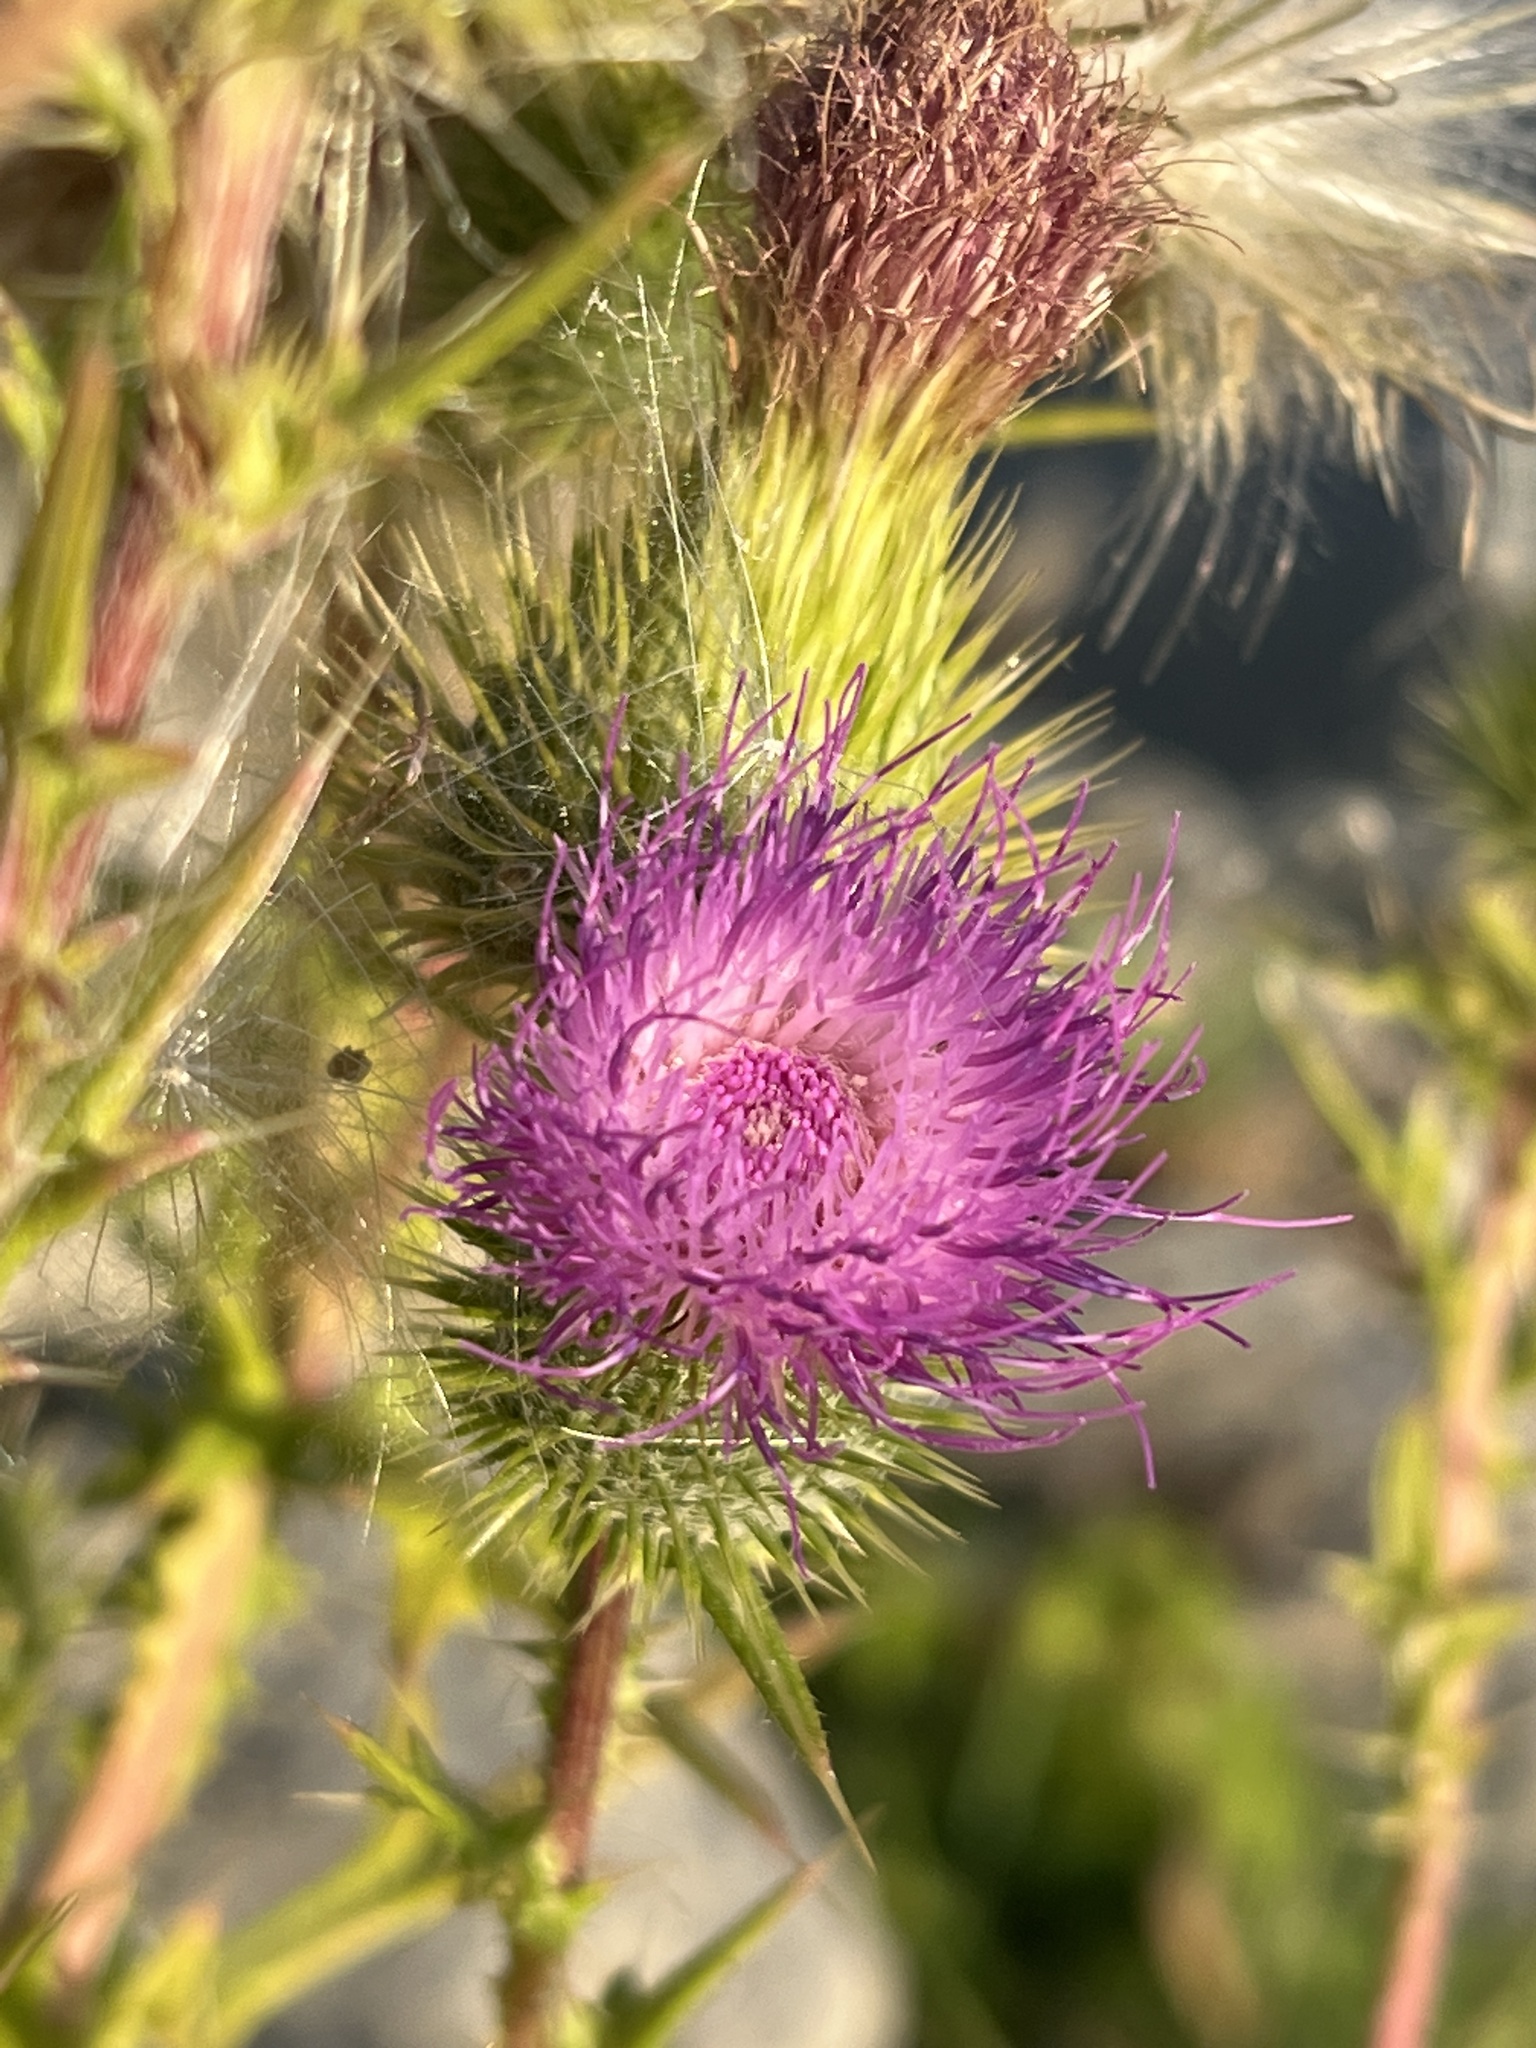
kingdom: Plantae
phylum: Tracheophyta
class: Magnoliopsida
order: Asterales
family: Asteraceae
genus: Cirsium
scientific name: Cirsium vulgare
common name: Bull thistle
